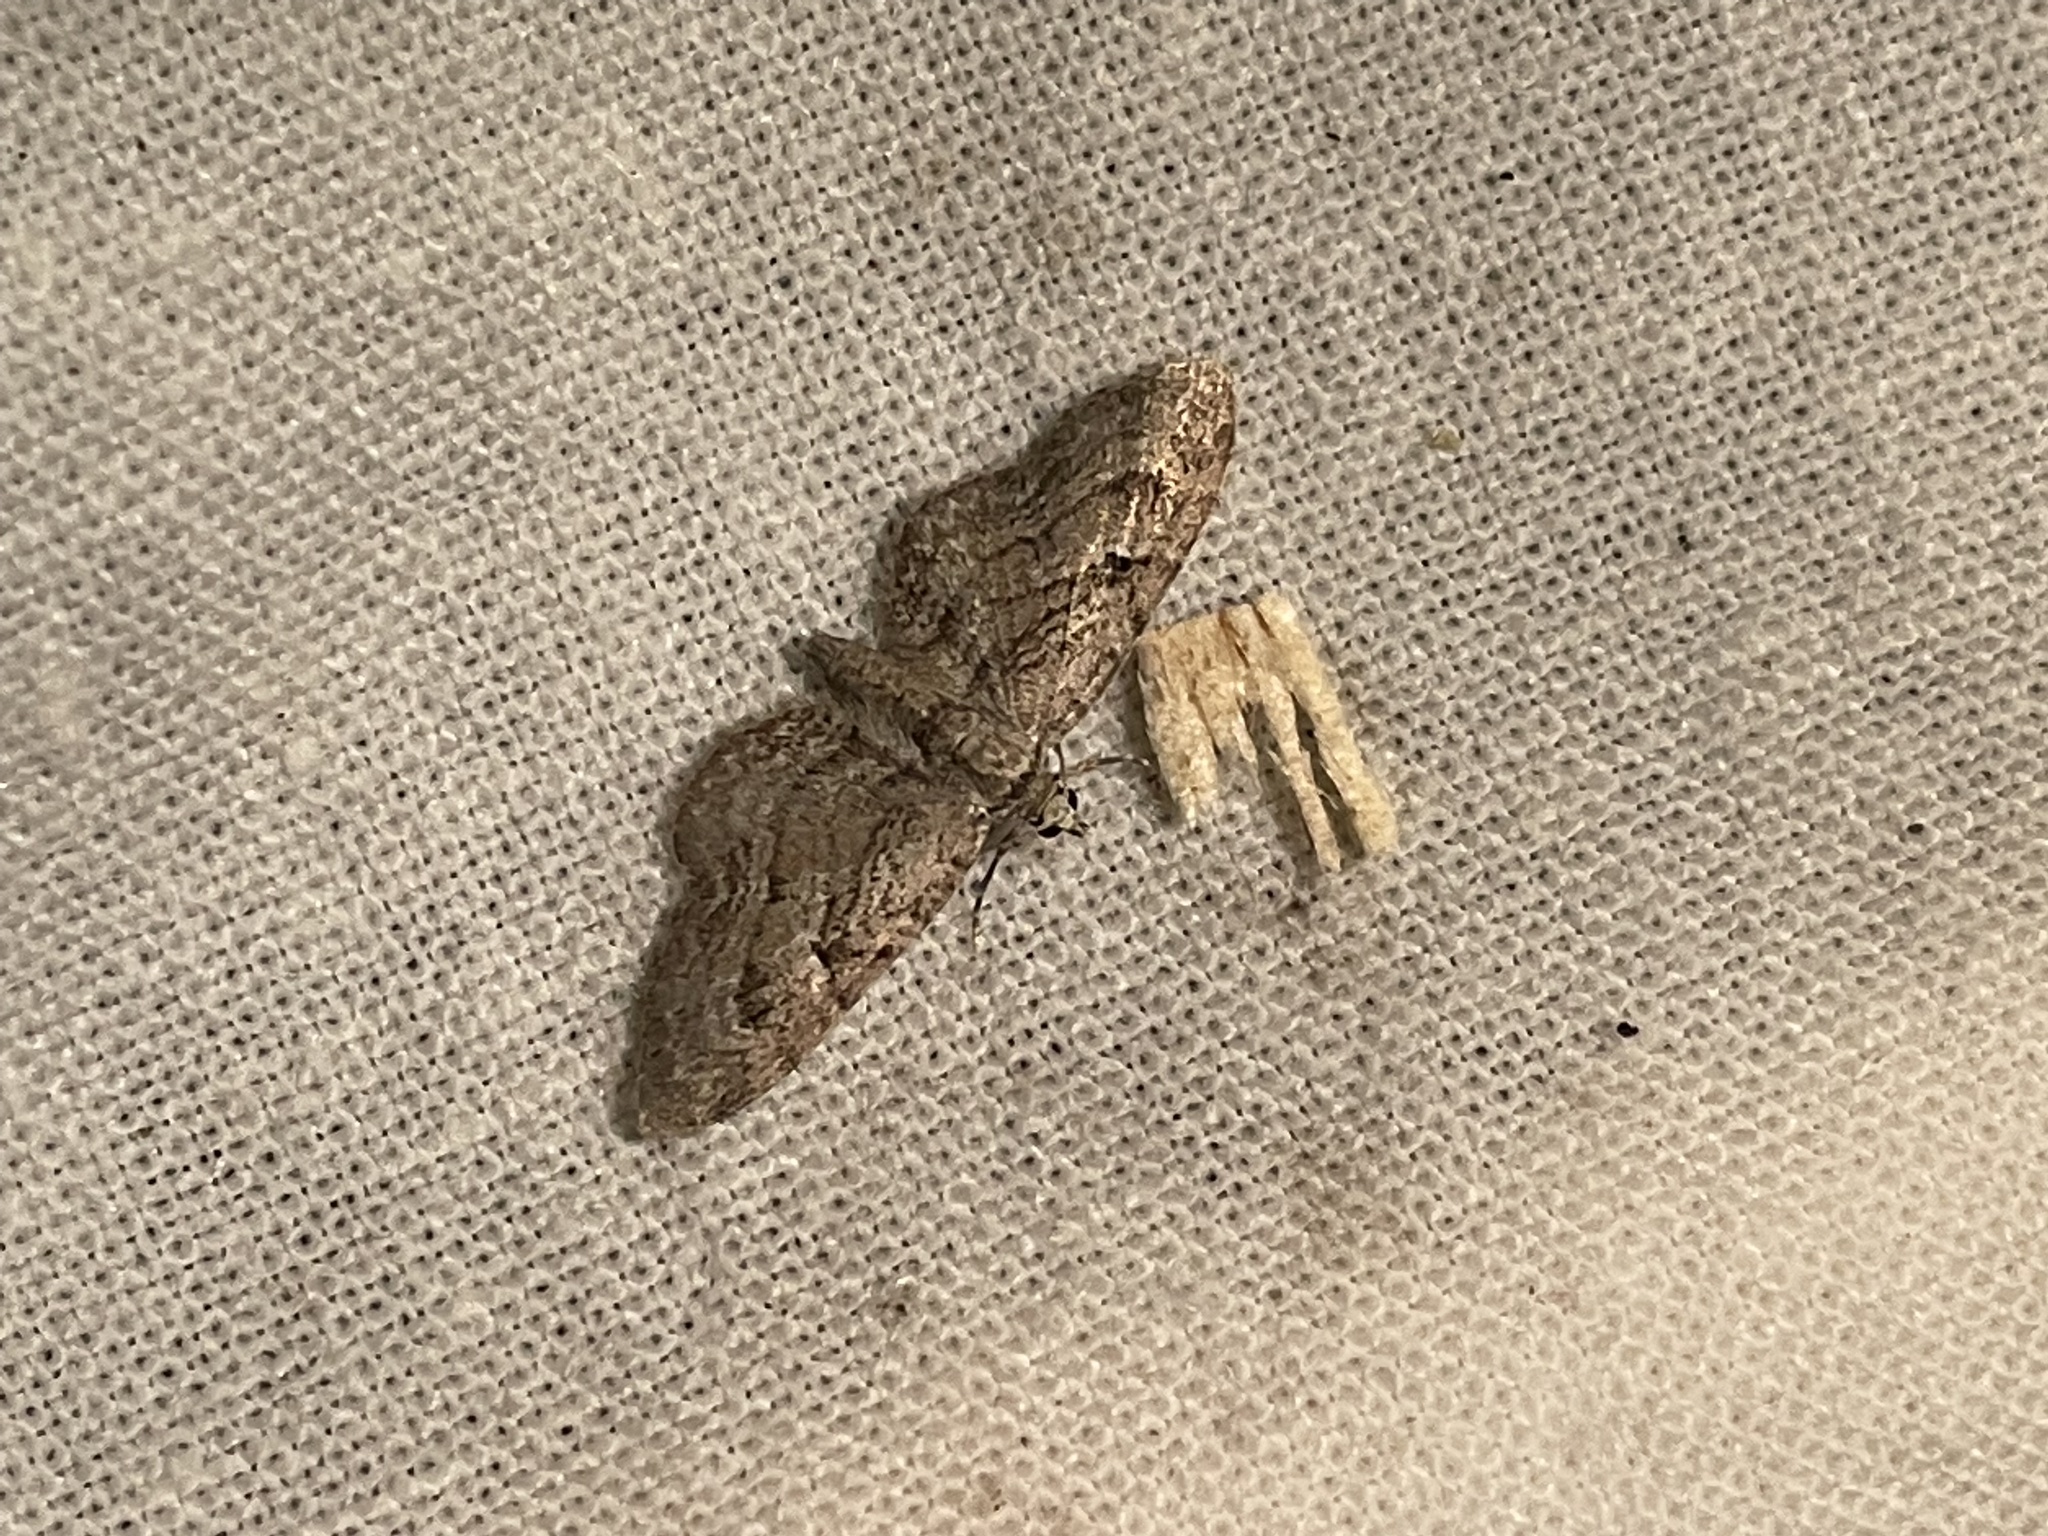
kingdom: Animalia
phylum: Arthropoda
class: Insecta
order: Lepidoptera
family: Geometridae
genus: Eupithecia
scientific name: Eupithecia pusillata
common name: Juniper pug
